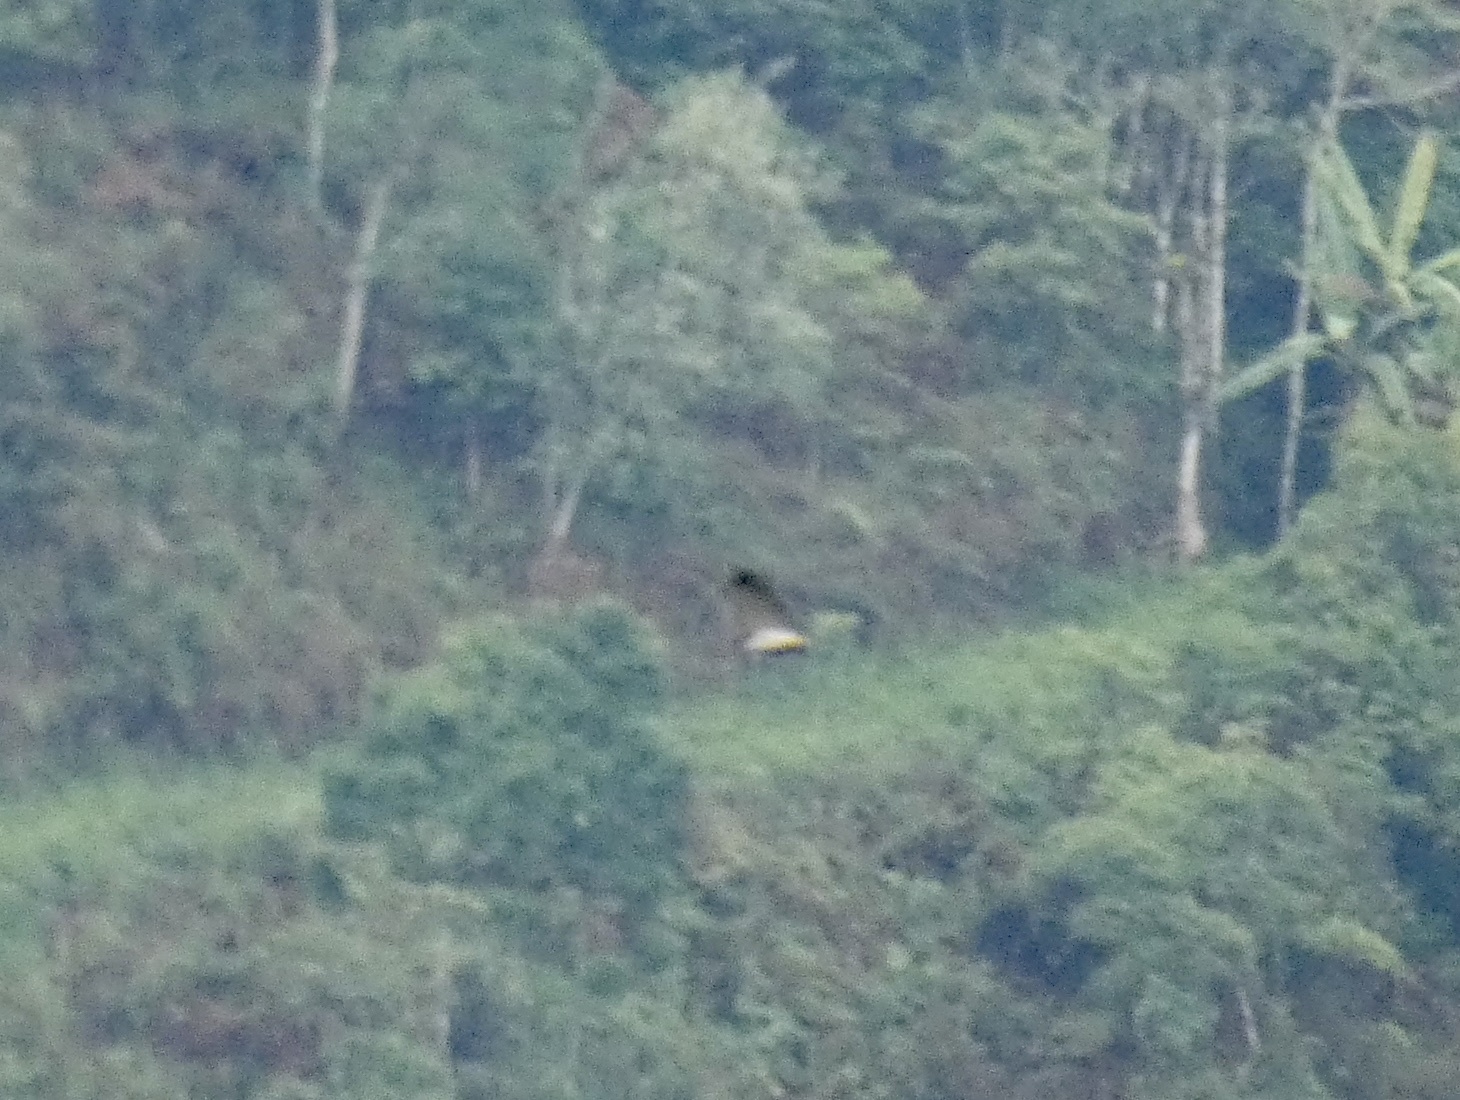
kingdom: Animalia
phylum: Chordata
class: Aves
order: Accipitriformes
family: Accipitridae
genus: Buteo
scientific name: Buteo albicaudatus
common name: White-tailed hawk
